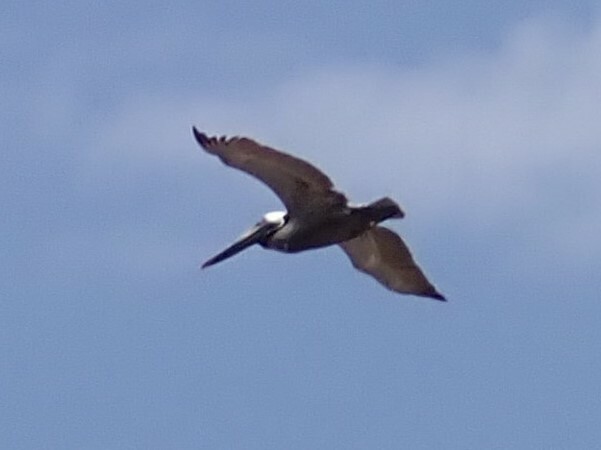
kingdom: Animalia
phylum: Chordata
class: Aves
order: Pelecaniformes
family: Pelecanidae
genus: Pelecanus
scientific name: Pelecanus occidentalis
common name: Brown pelican
